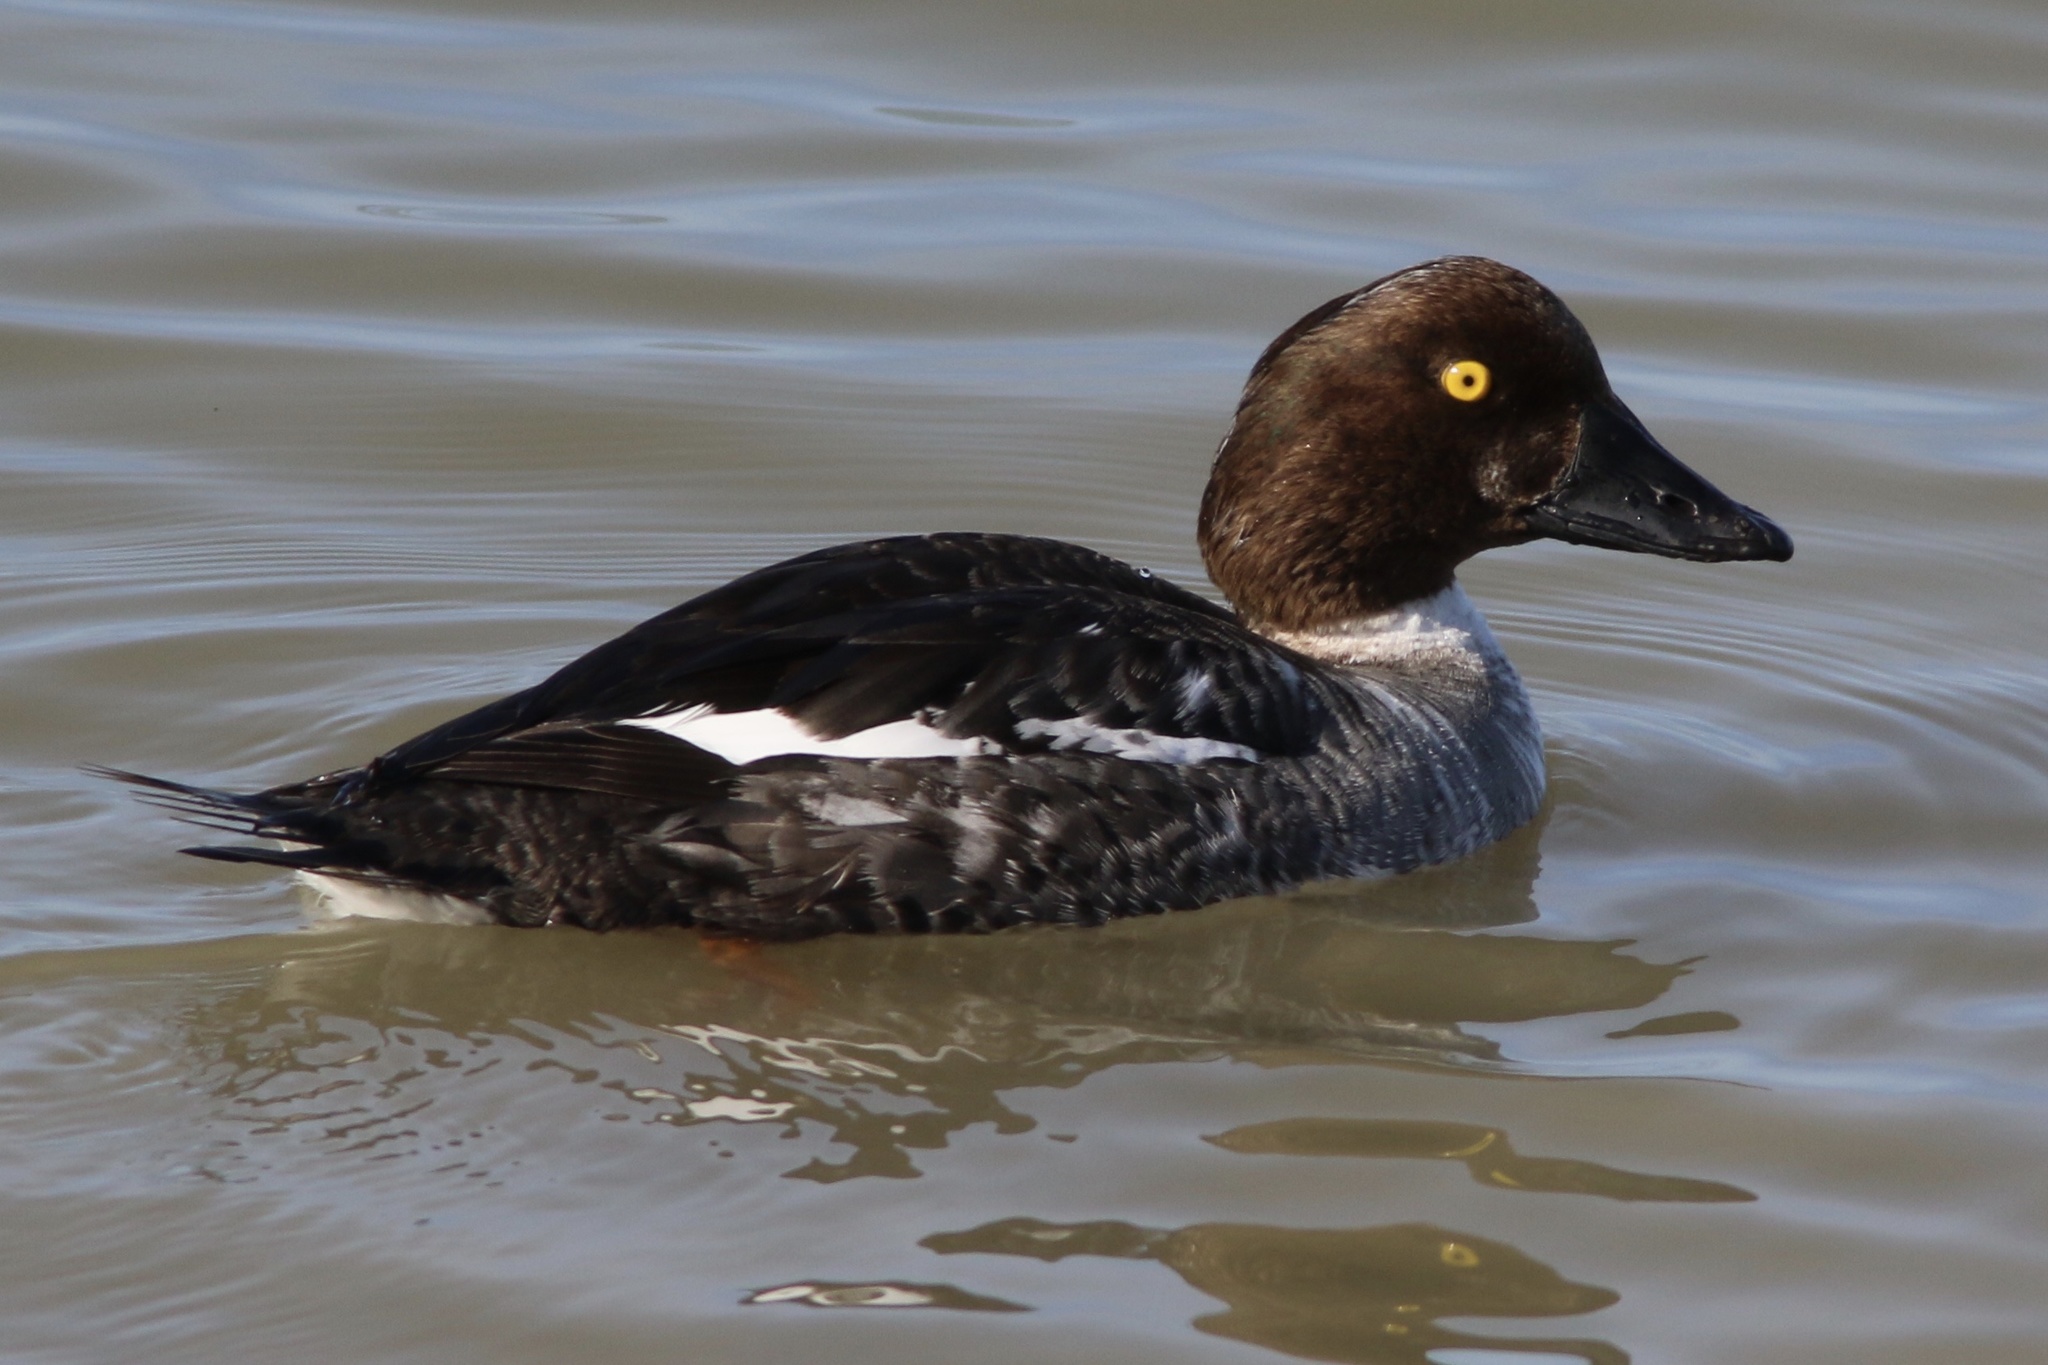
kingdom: Animalia
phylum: Chordata
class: Aves
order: Anseriformes
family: Anatidae
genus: Bucephala
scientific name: Bucephala clangula
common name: Common goldeneye
